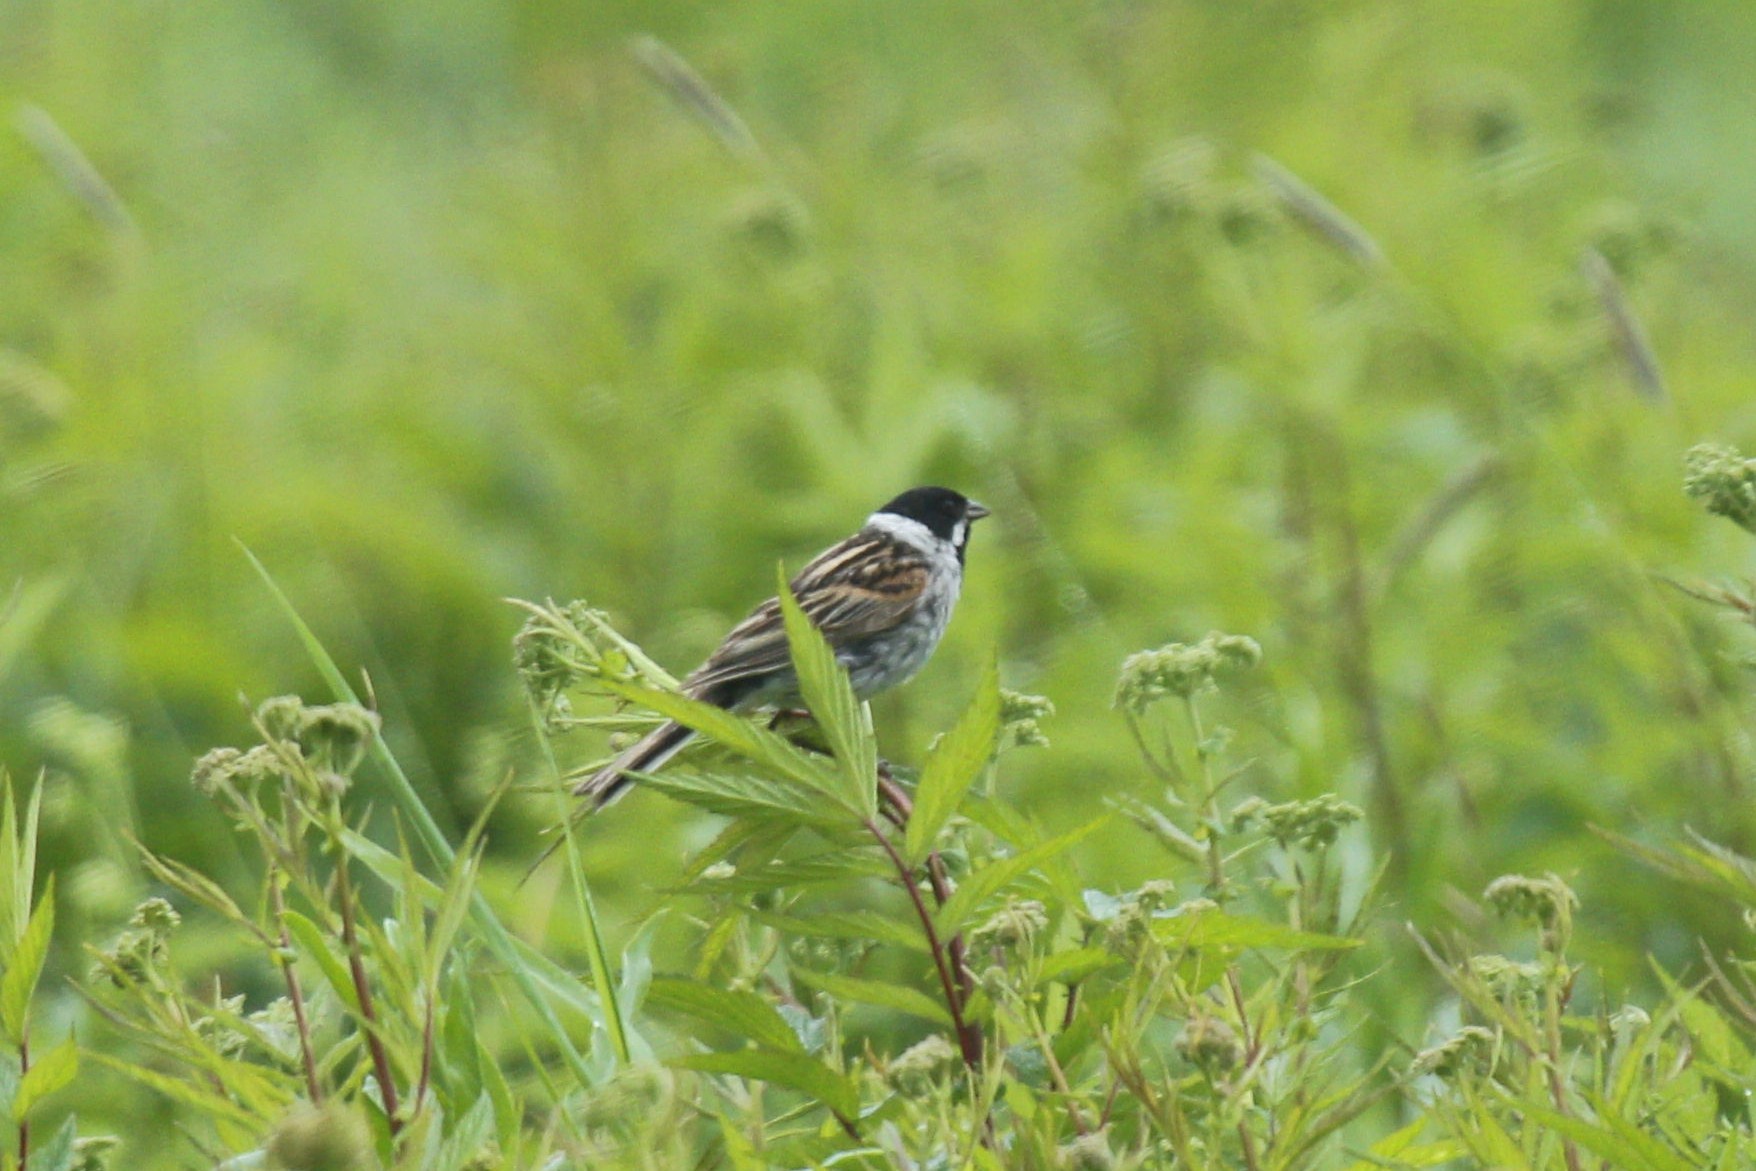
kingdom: Animalia
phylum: Chordata
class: Aves
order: Passeriformes
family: Emberizidae
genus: Emberiza
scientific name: Emberiza schoeniclus
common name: Reed bunting
